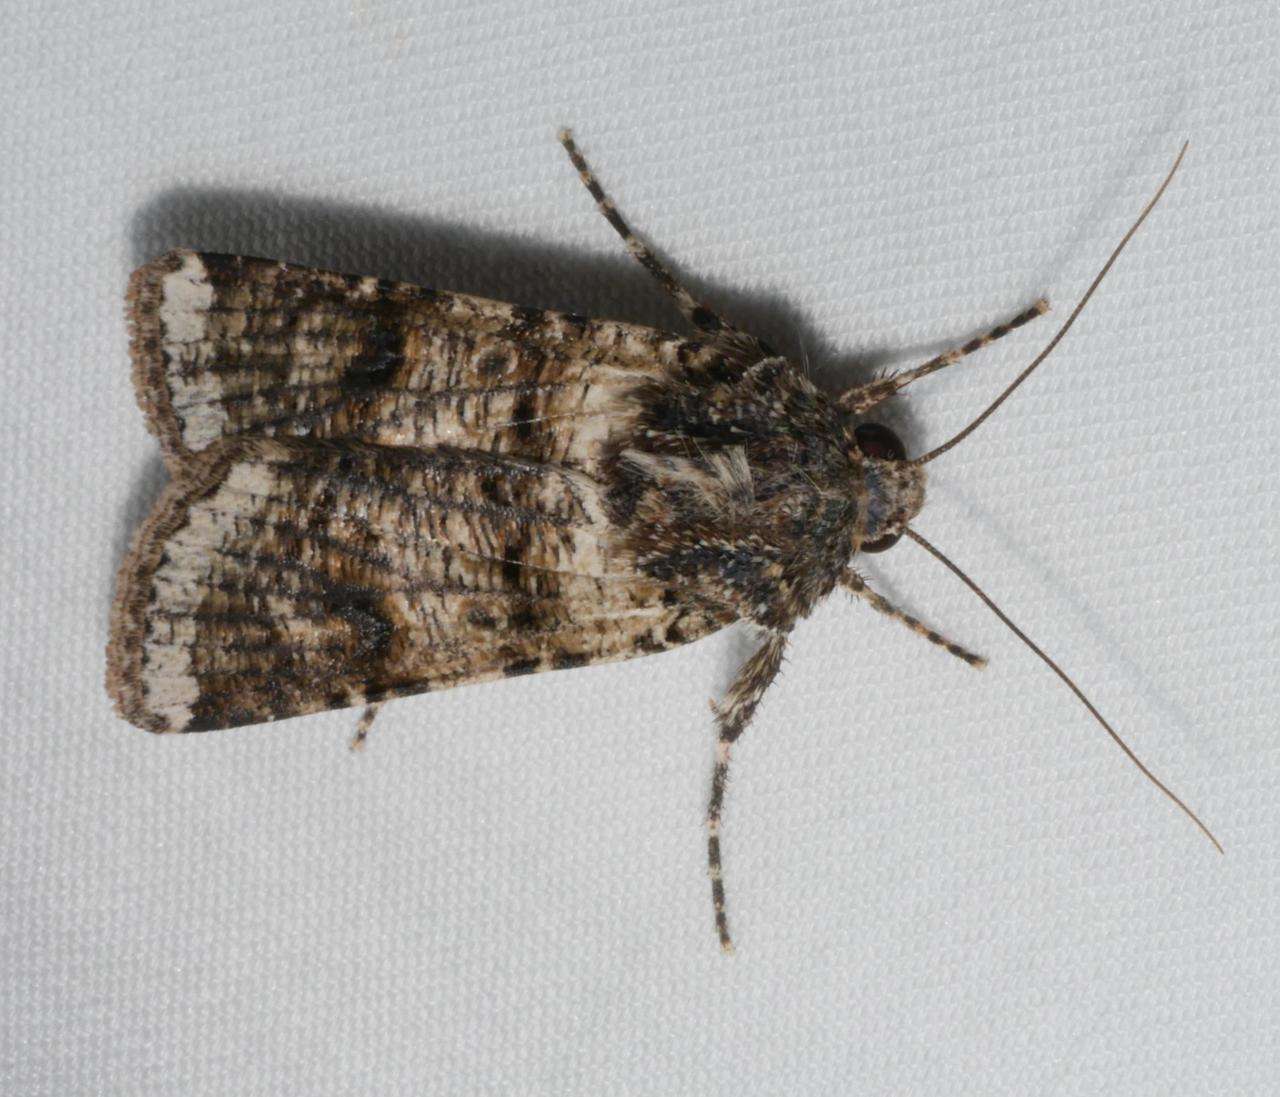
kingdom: Animalia
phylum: Arthropoda
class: Insecta
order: Lepidoptera
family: Noctuidae
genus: Agrotis
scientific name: Agrotis porphyricollis
